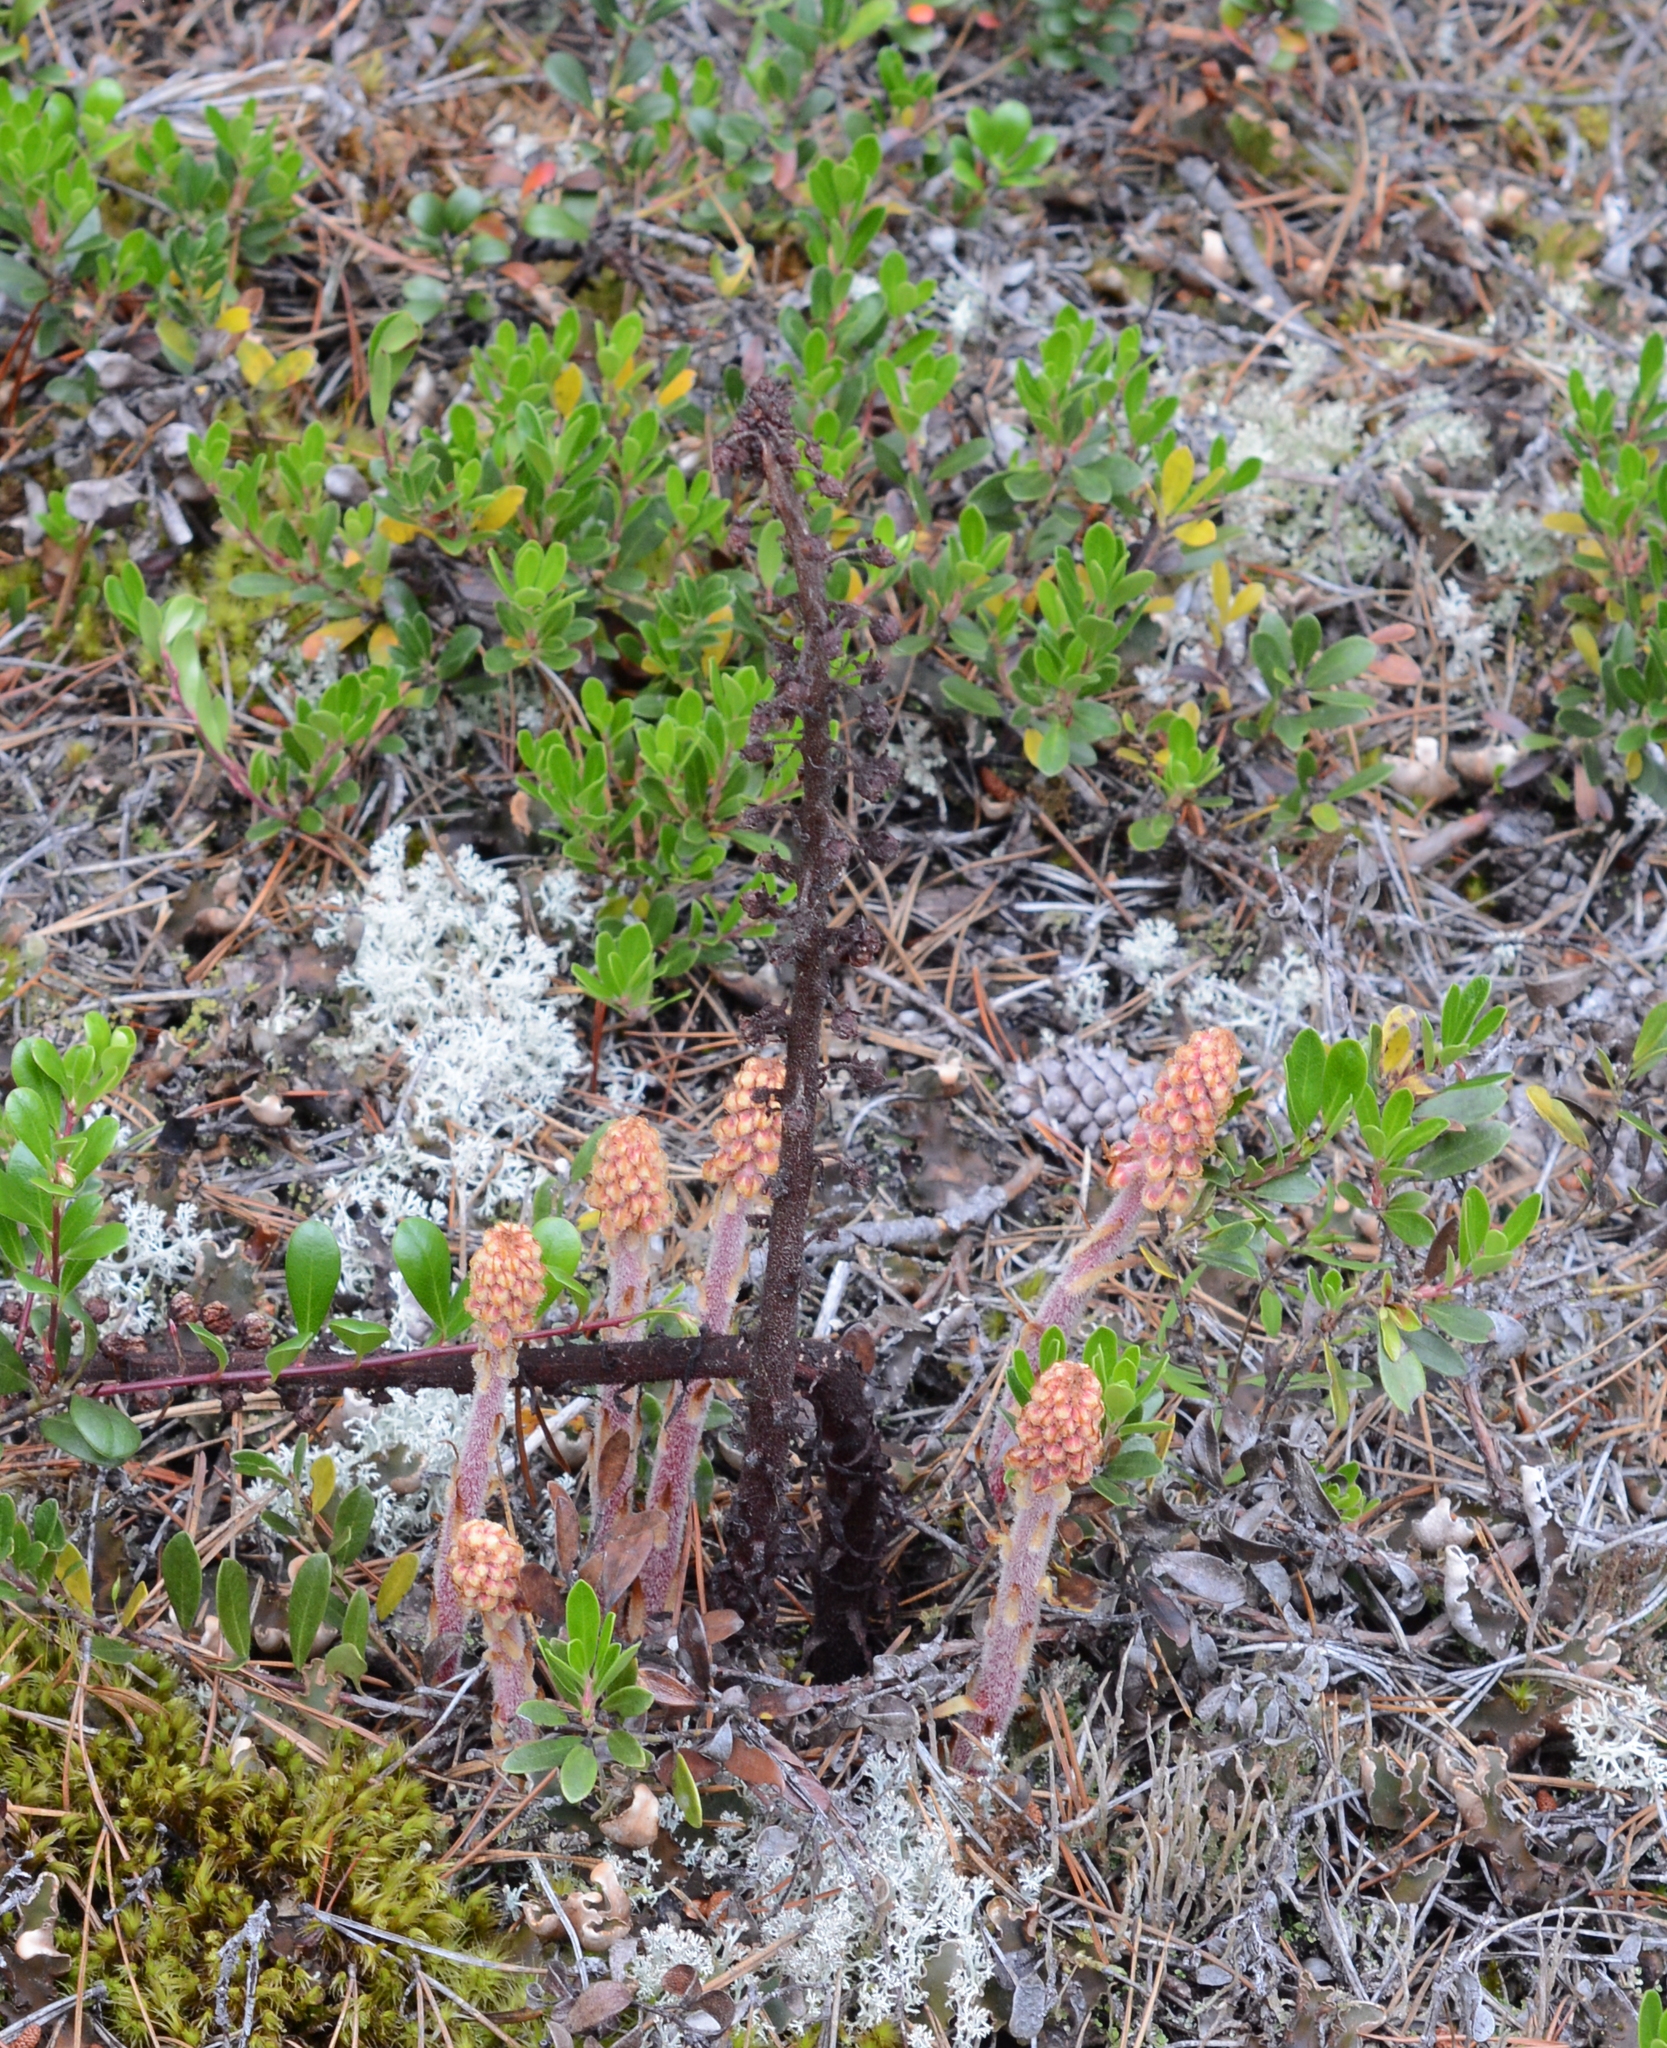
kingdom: Plantae
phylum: Tracheophyta
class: Magnoliopsida
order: Ericales
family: Ericaceae
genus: Pterospora
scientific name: Pterospora andromedea
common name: Giant bird's-nest
